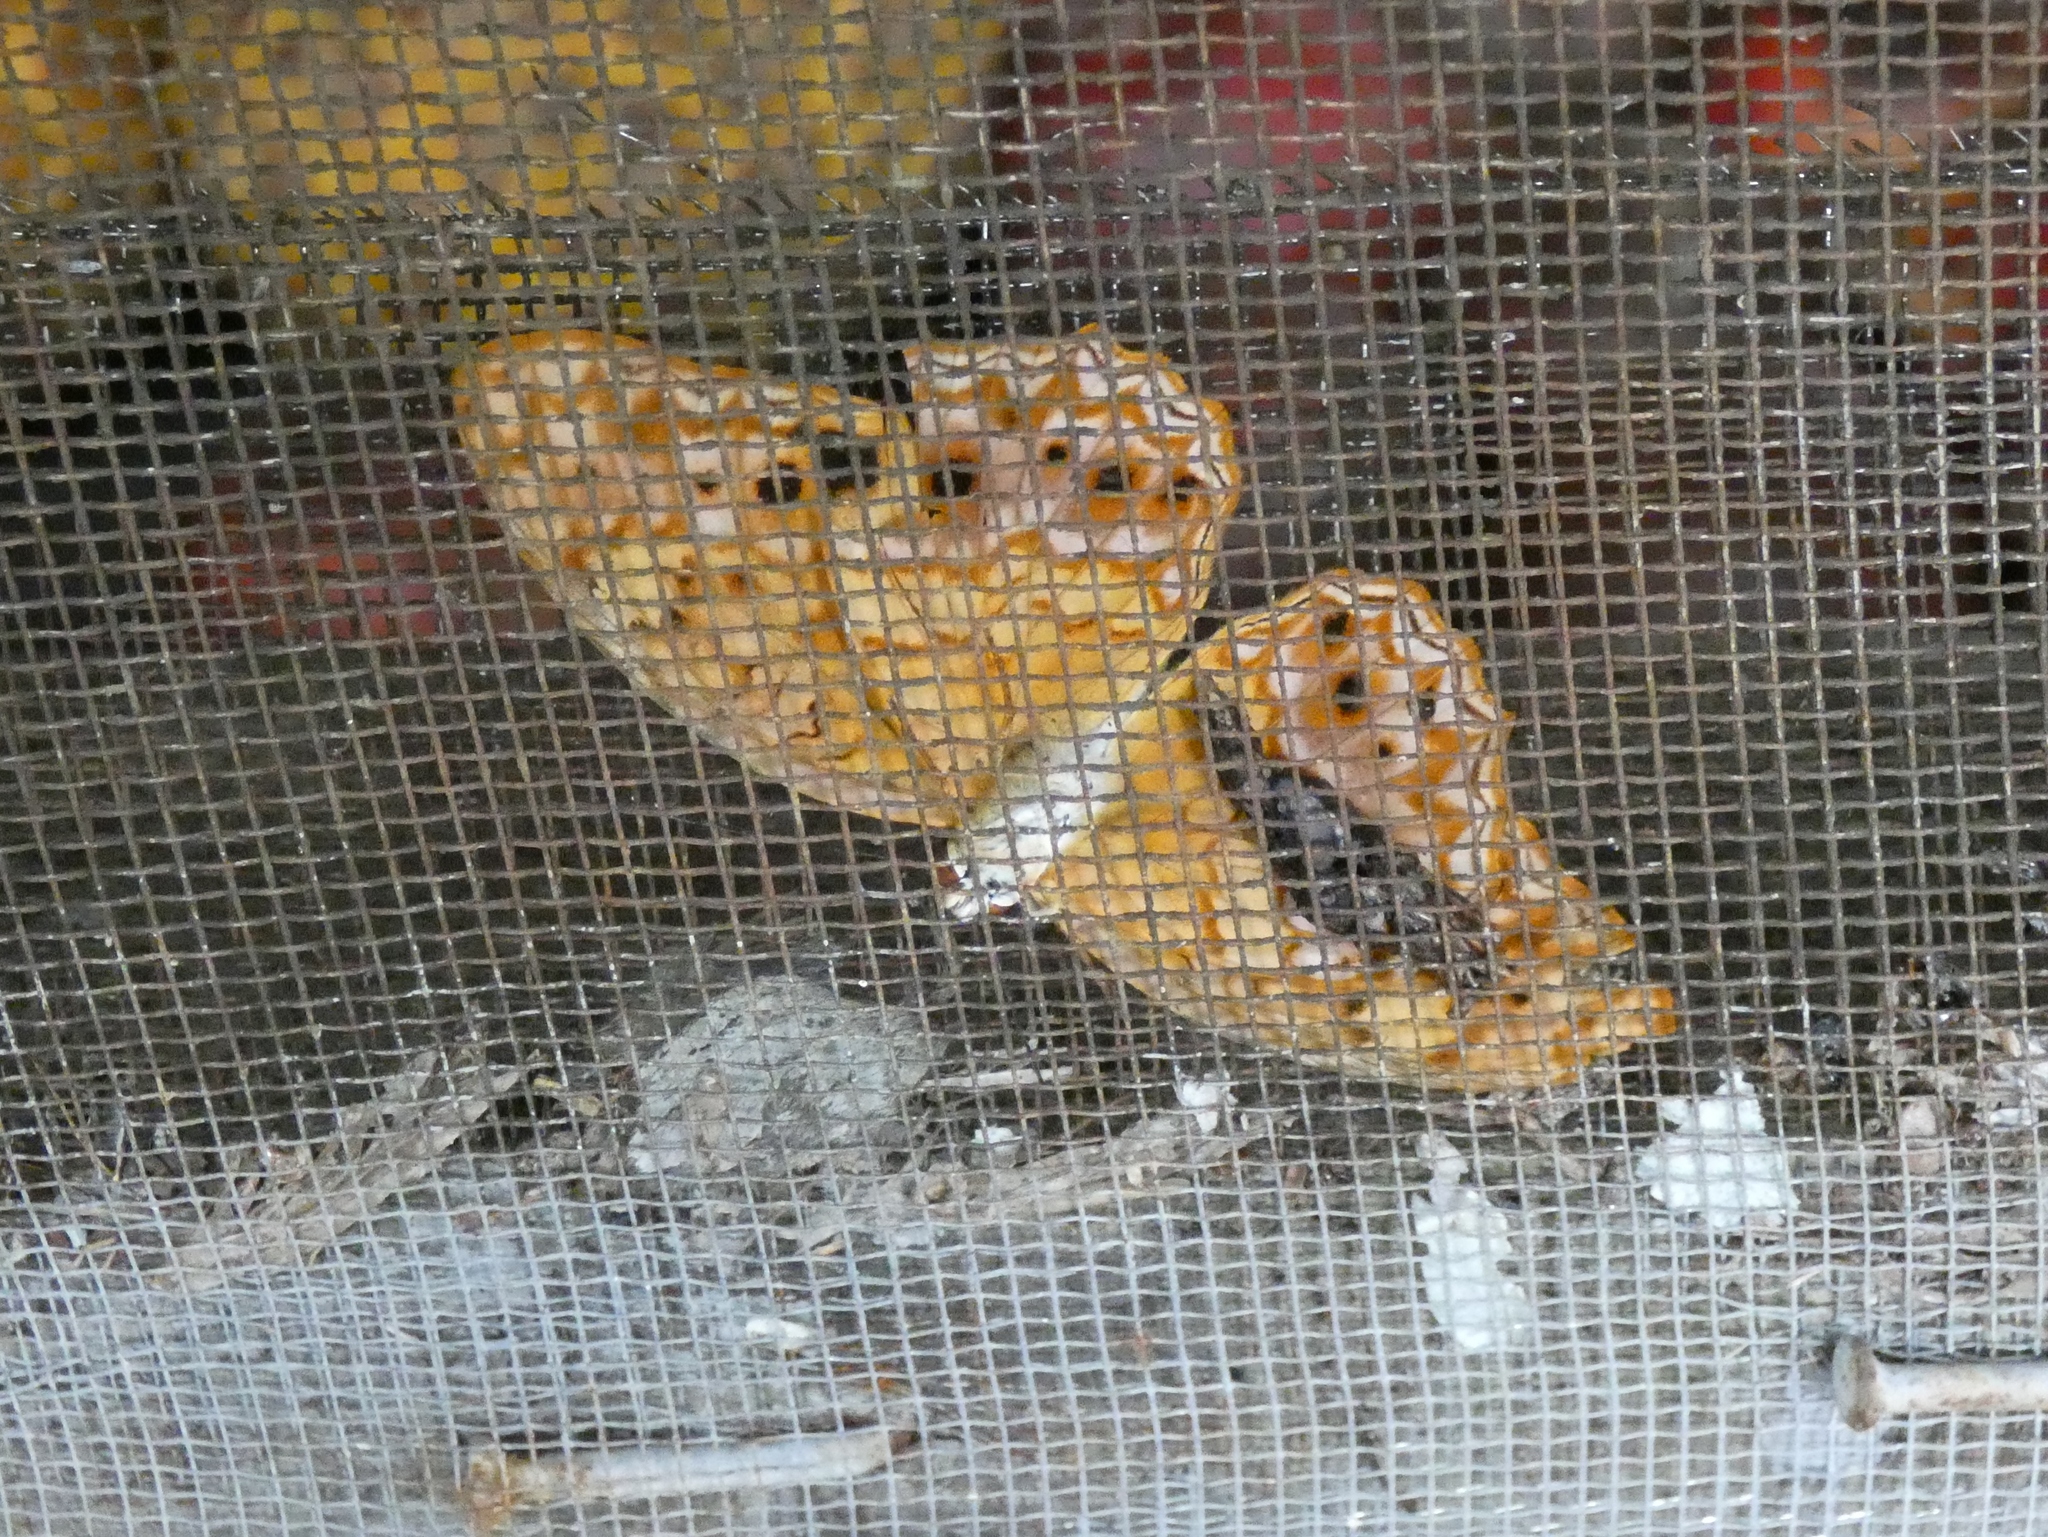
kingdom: Animalia
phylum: Arthropoda
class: Insecta
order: Lepidoptera
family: Nymphalidae
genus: Phalanta
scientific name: Phalanta columbina
